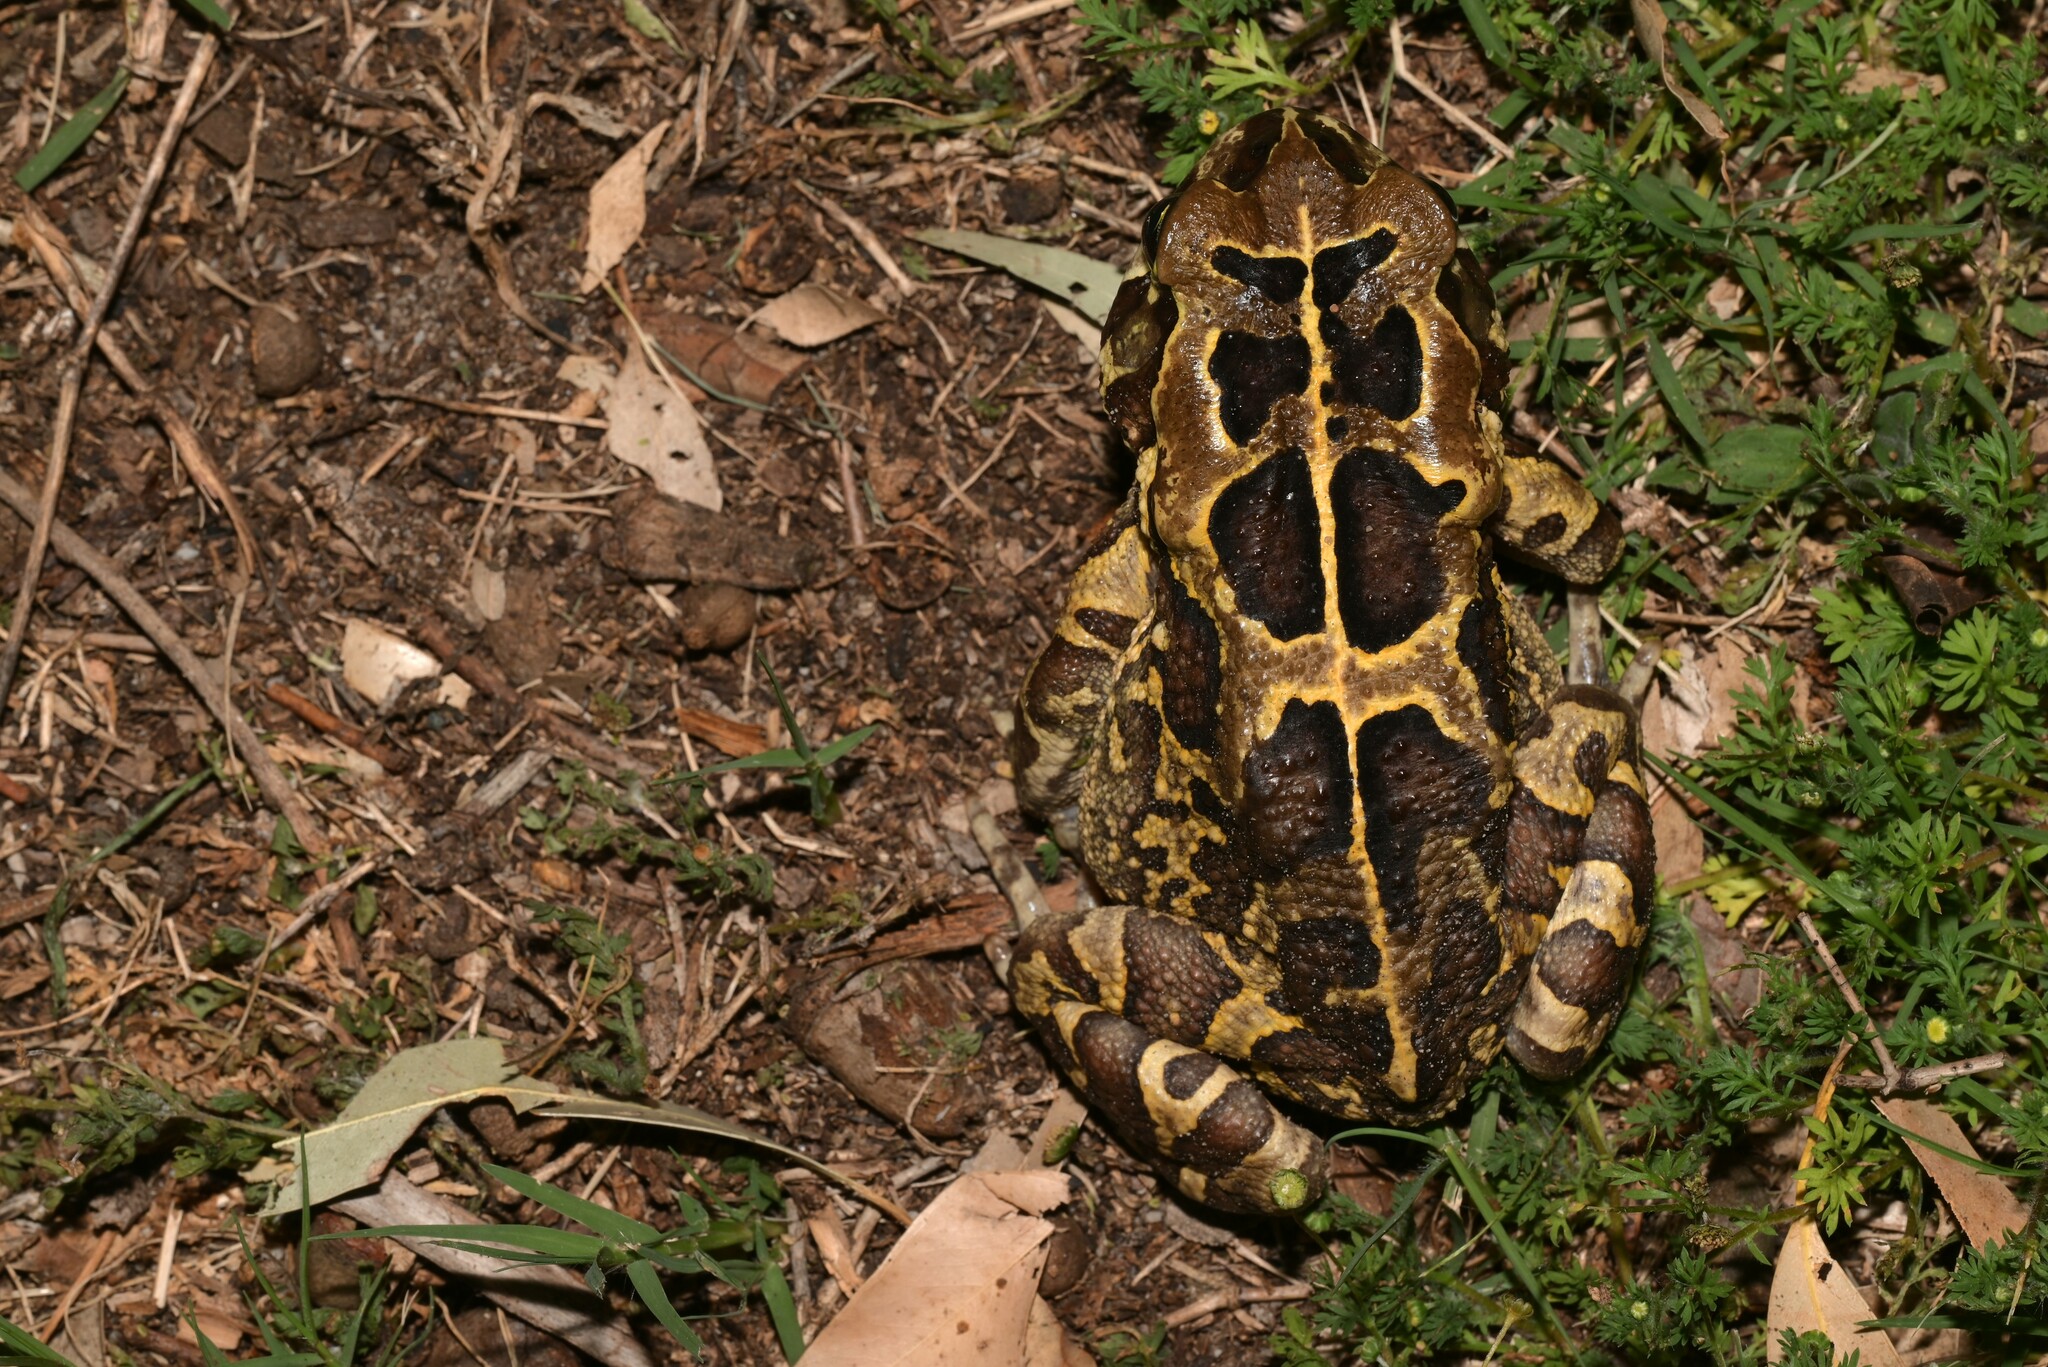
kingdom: Animalia
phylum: Chordata
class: Amphibia
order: Anura
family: Bufonidae
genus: Sclerophrys
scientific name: Sclerophrys pantherina
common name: Panther toad
